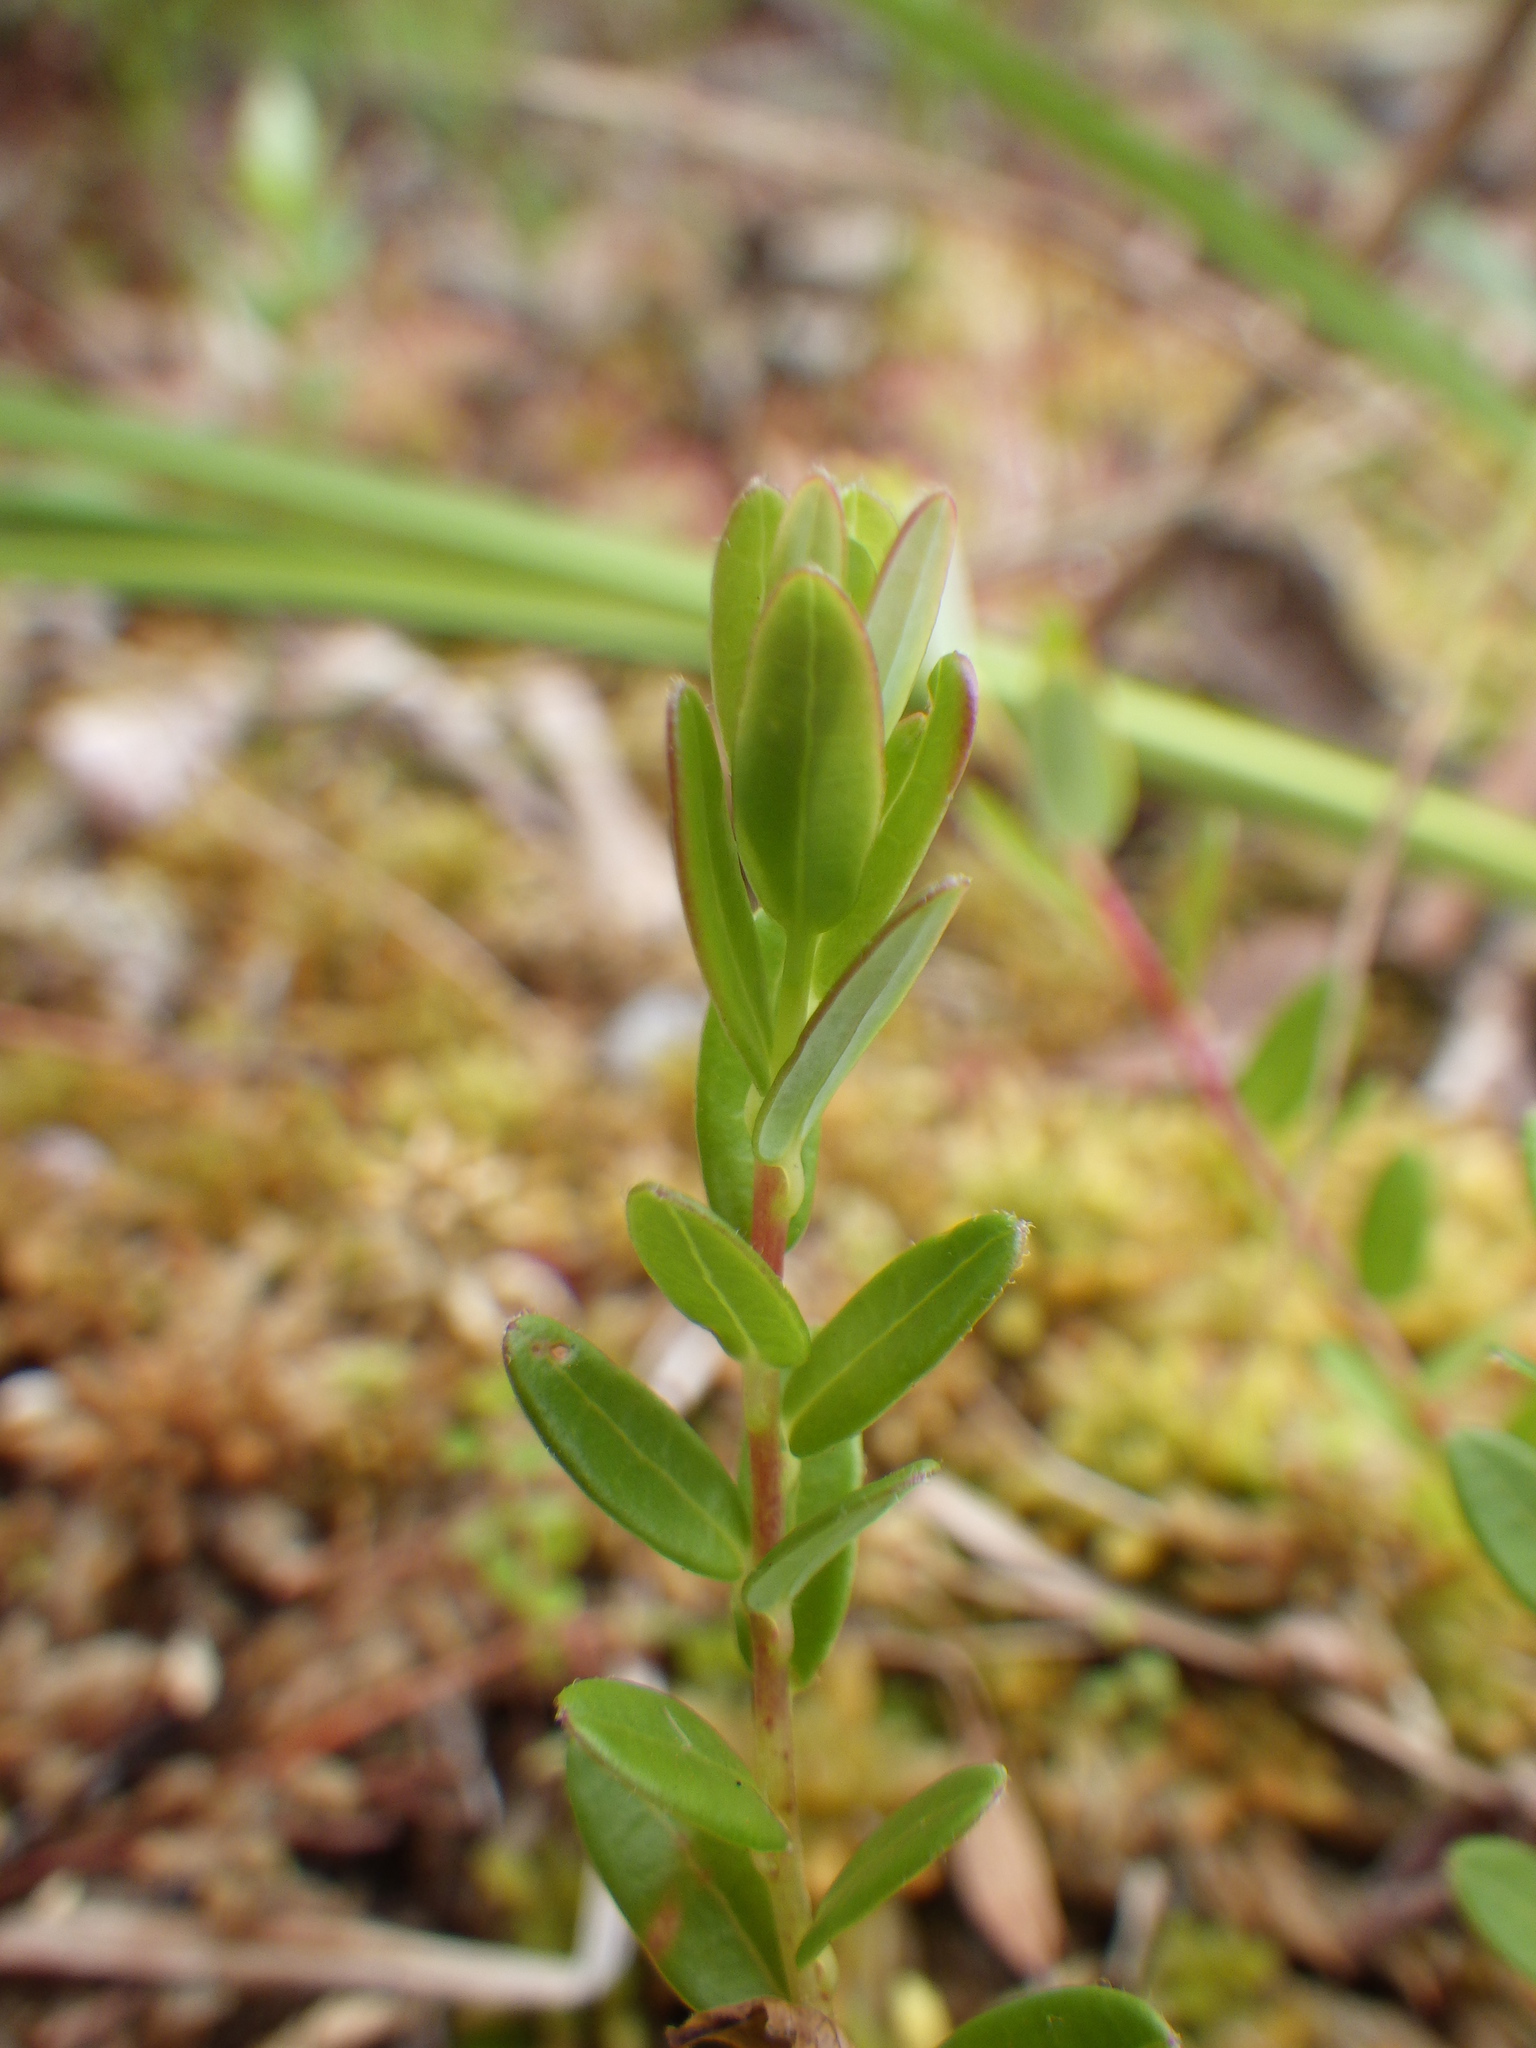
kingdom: Plantae
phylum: Tracheophyta
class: Magnoliopsida
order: Ericales
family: Ericaceae
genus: Vaccinium
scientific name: Vaccinium macrocarpon
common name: American cranberry
